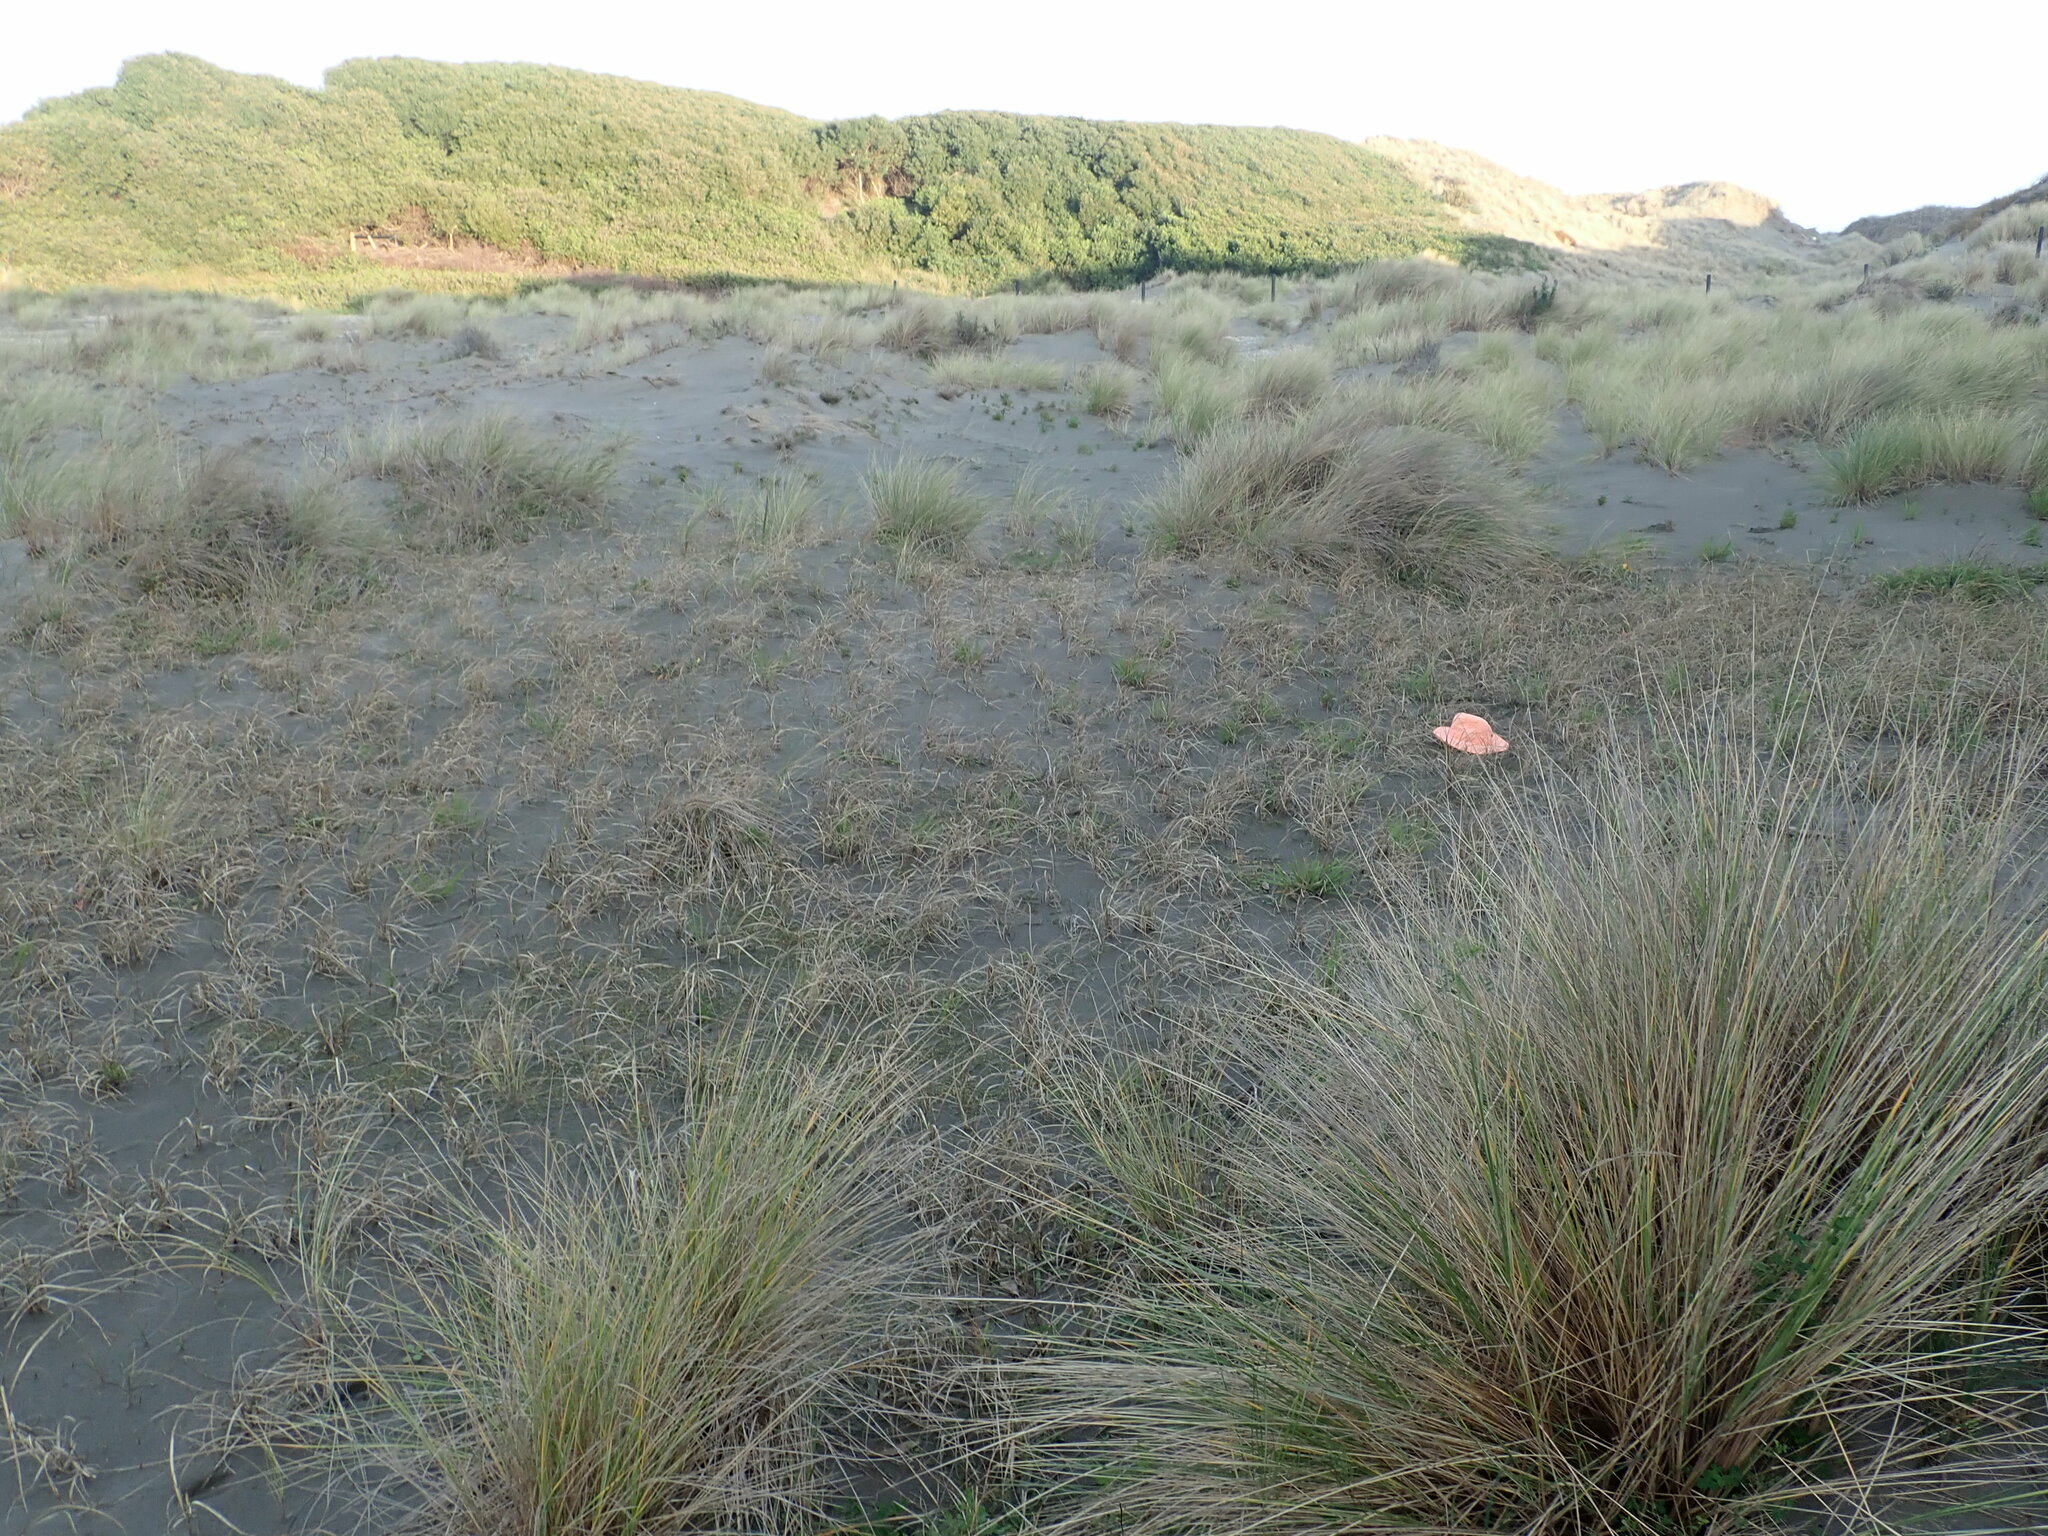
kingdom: Plantae
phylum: Tracheophyta
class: Magnoliopsida
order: Saxifragales
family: Haloragaceae
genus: Myriophyllum
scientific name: Myriophyllum votschii
